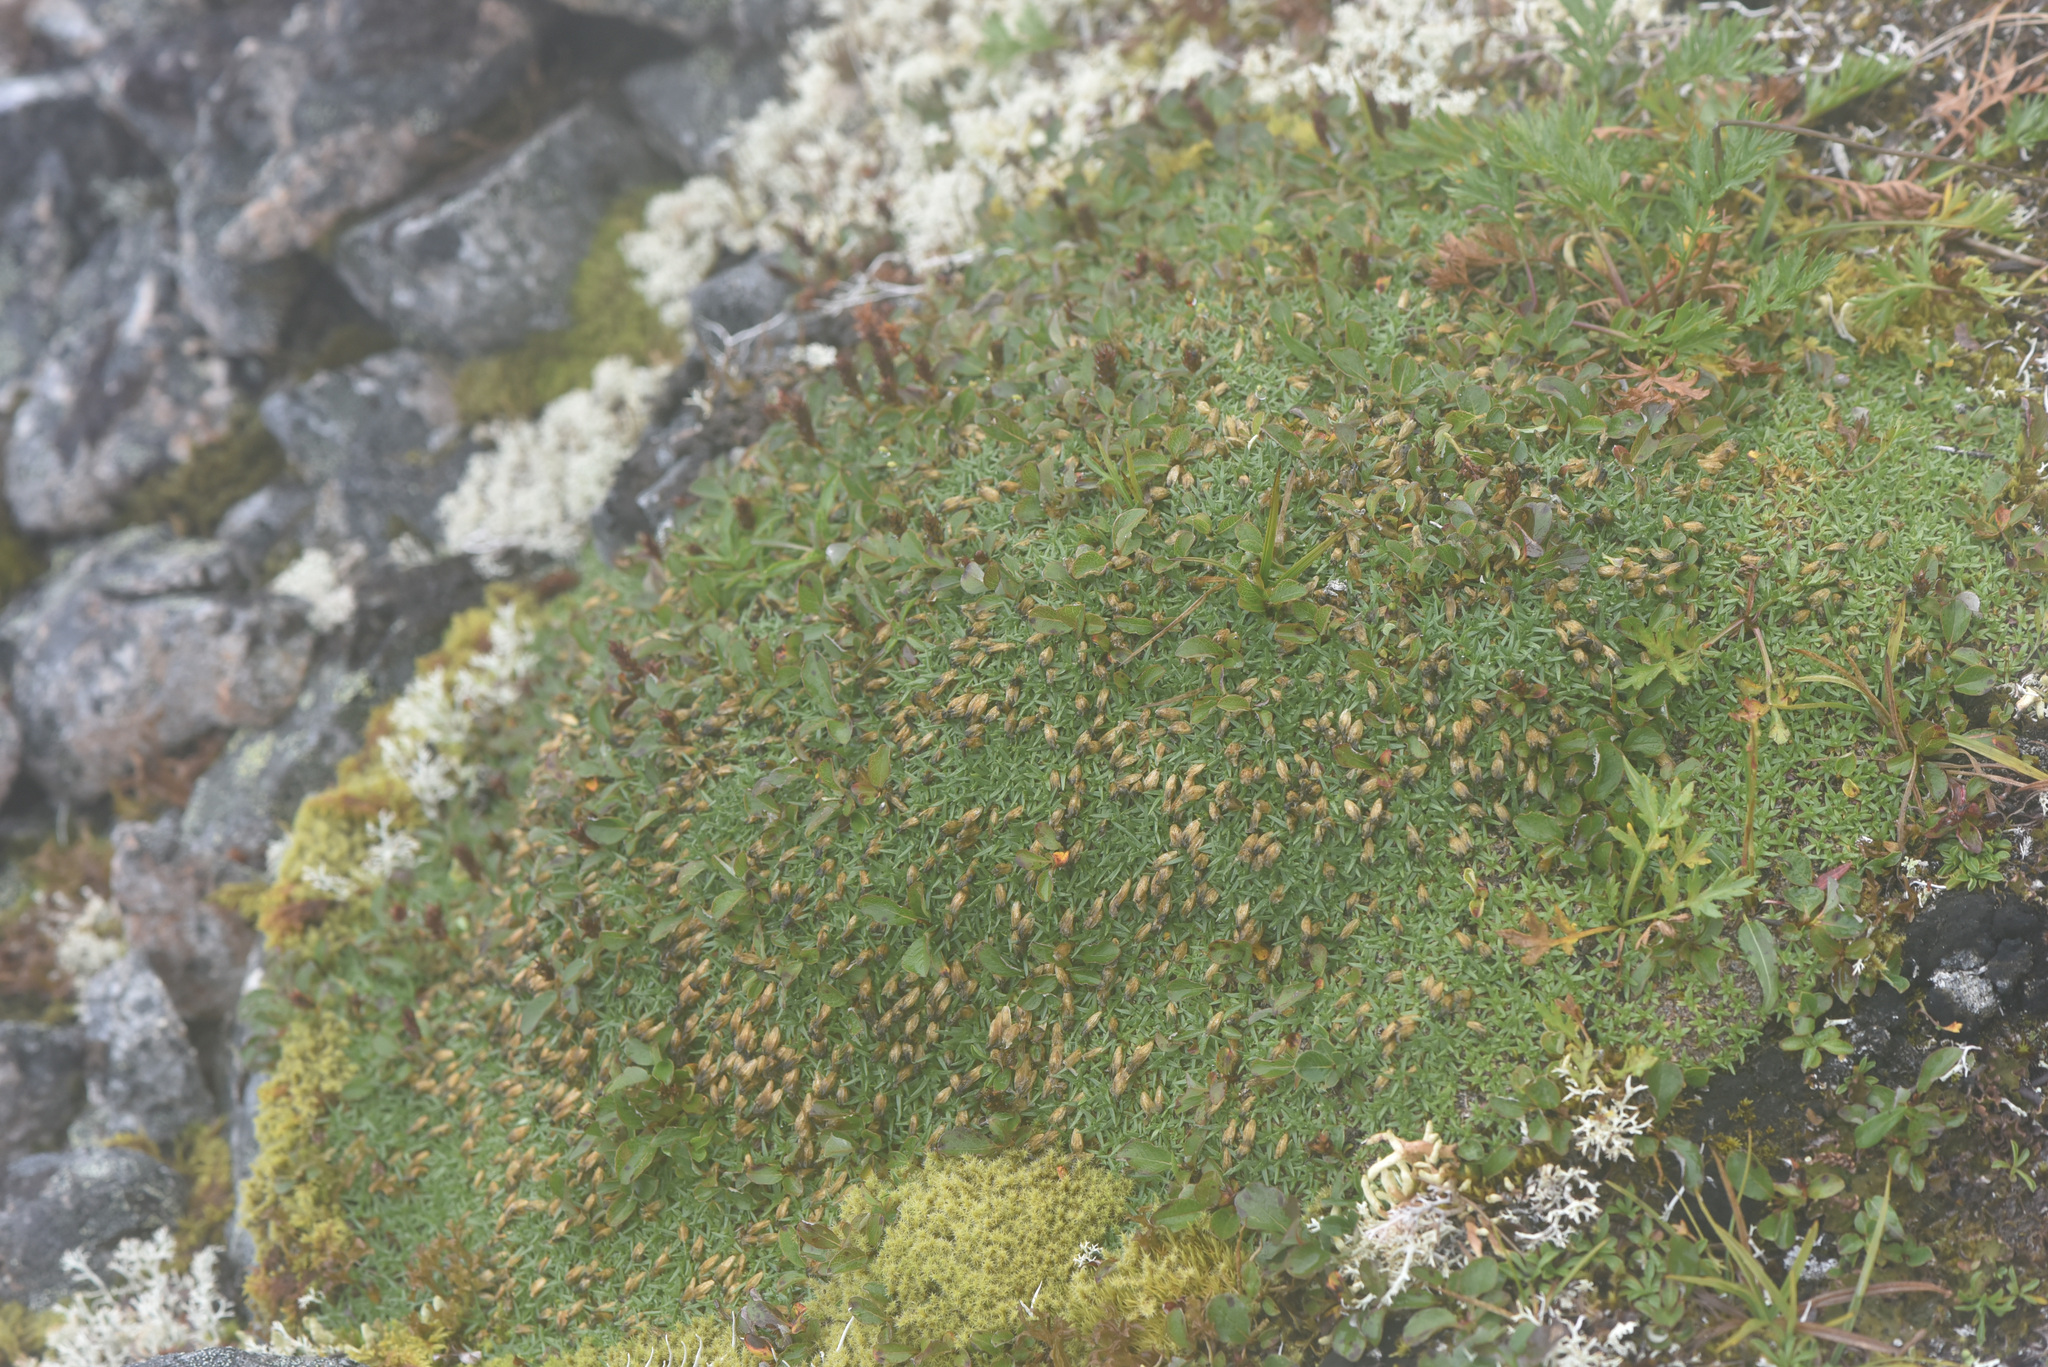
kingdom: Plantae
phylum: Tracheophyta
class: Magnoliopsida
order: Caryophyllales
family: Caryophyllaceae
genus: Silene
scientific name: Silene acaulis
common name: Moss campion
